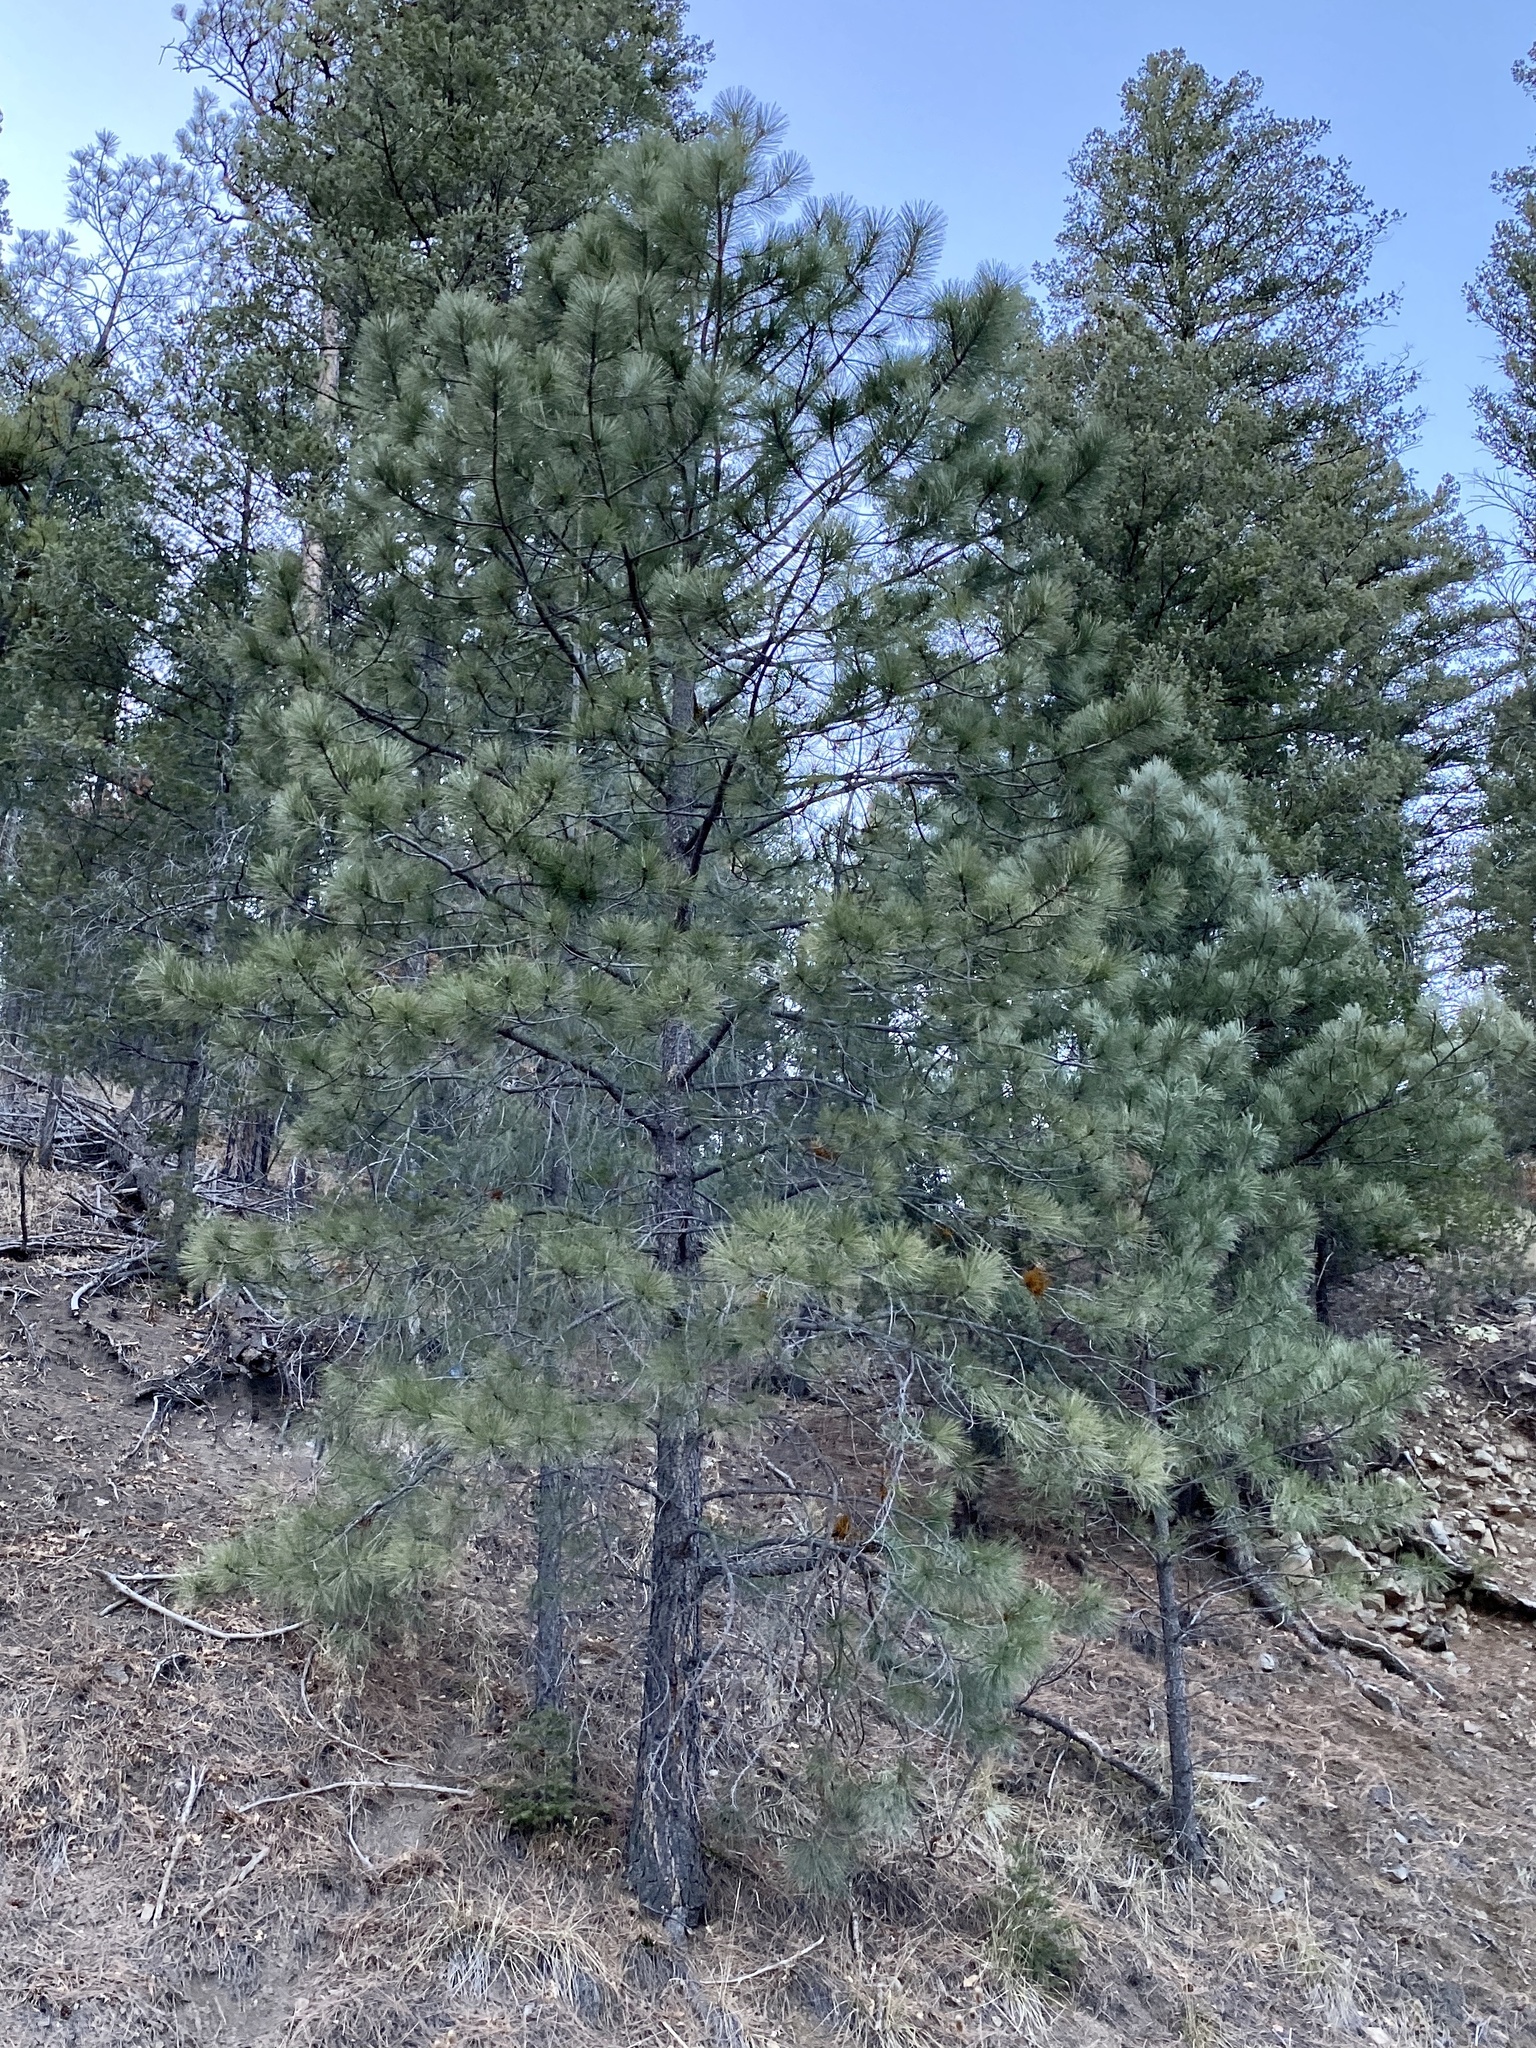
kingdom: Plantae
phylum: Tracheophyta
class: Pinopsida
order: Pinales
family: Pinaceae
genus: Pinus
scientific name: Pinus ponderosa
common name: Western yellow-pine
